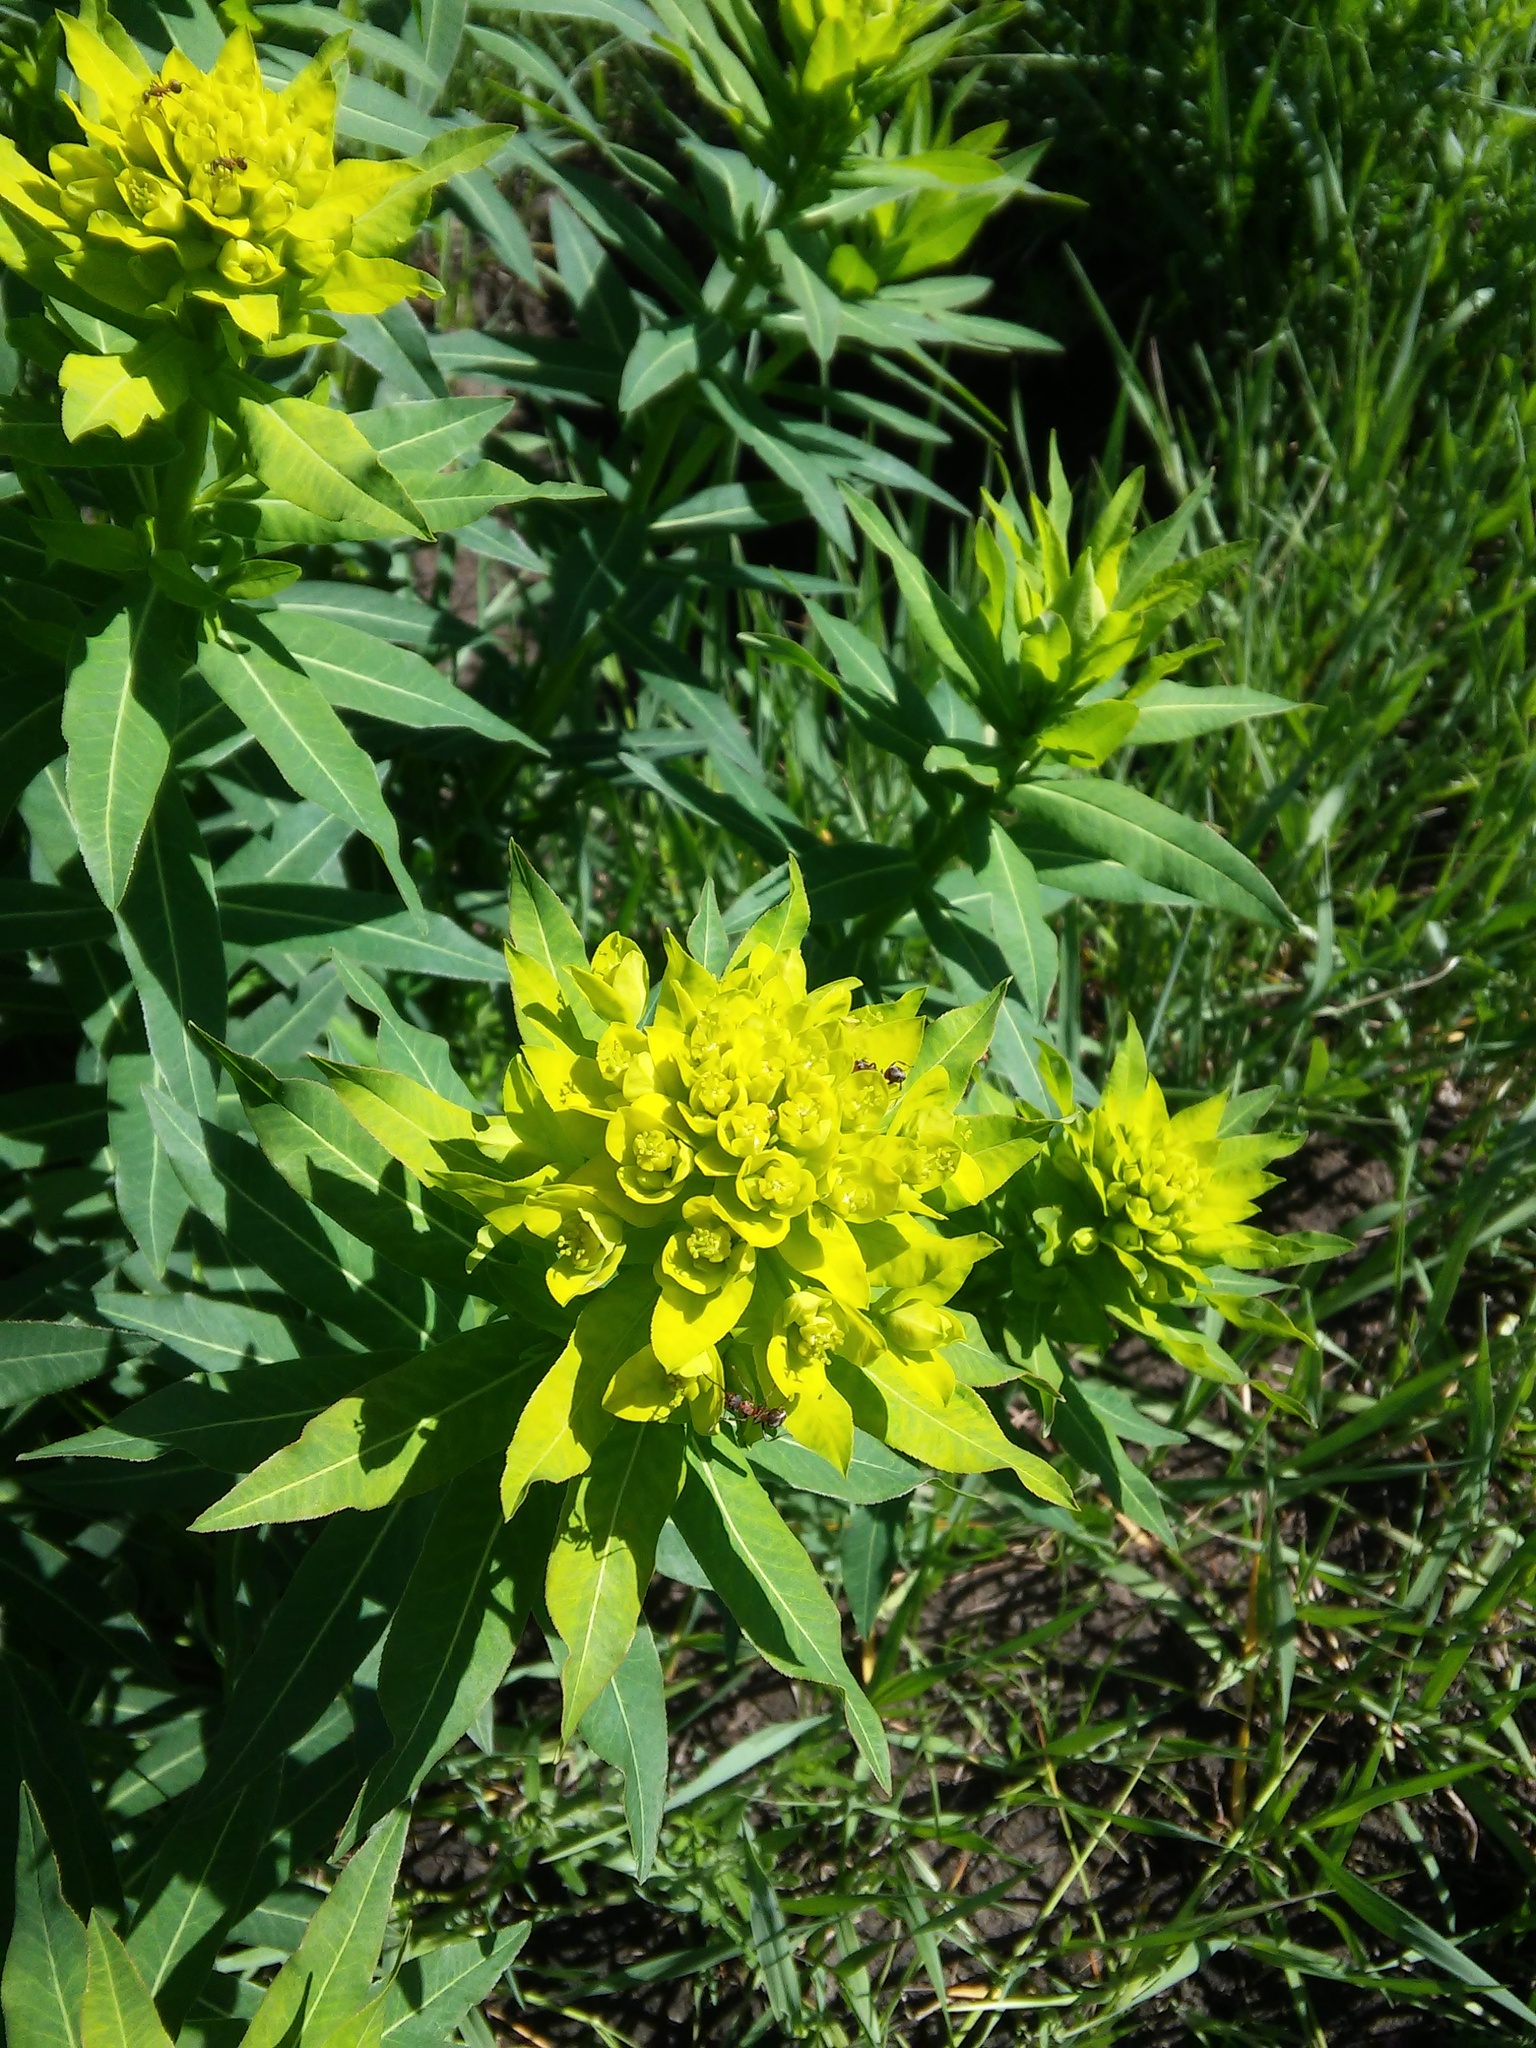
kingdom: Plantae
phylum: Tracheophyta
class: Magnoliopsida
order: Malpighiales
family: Euphorbiaceae
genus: Euphorbia
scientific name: Euphorbia semivillosa
